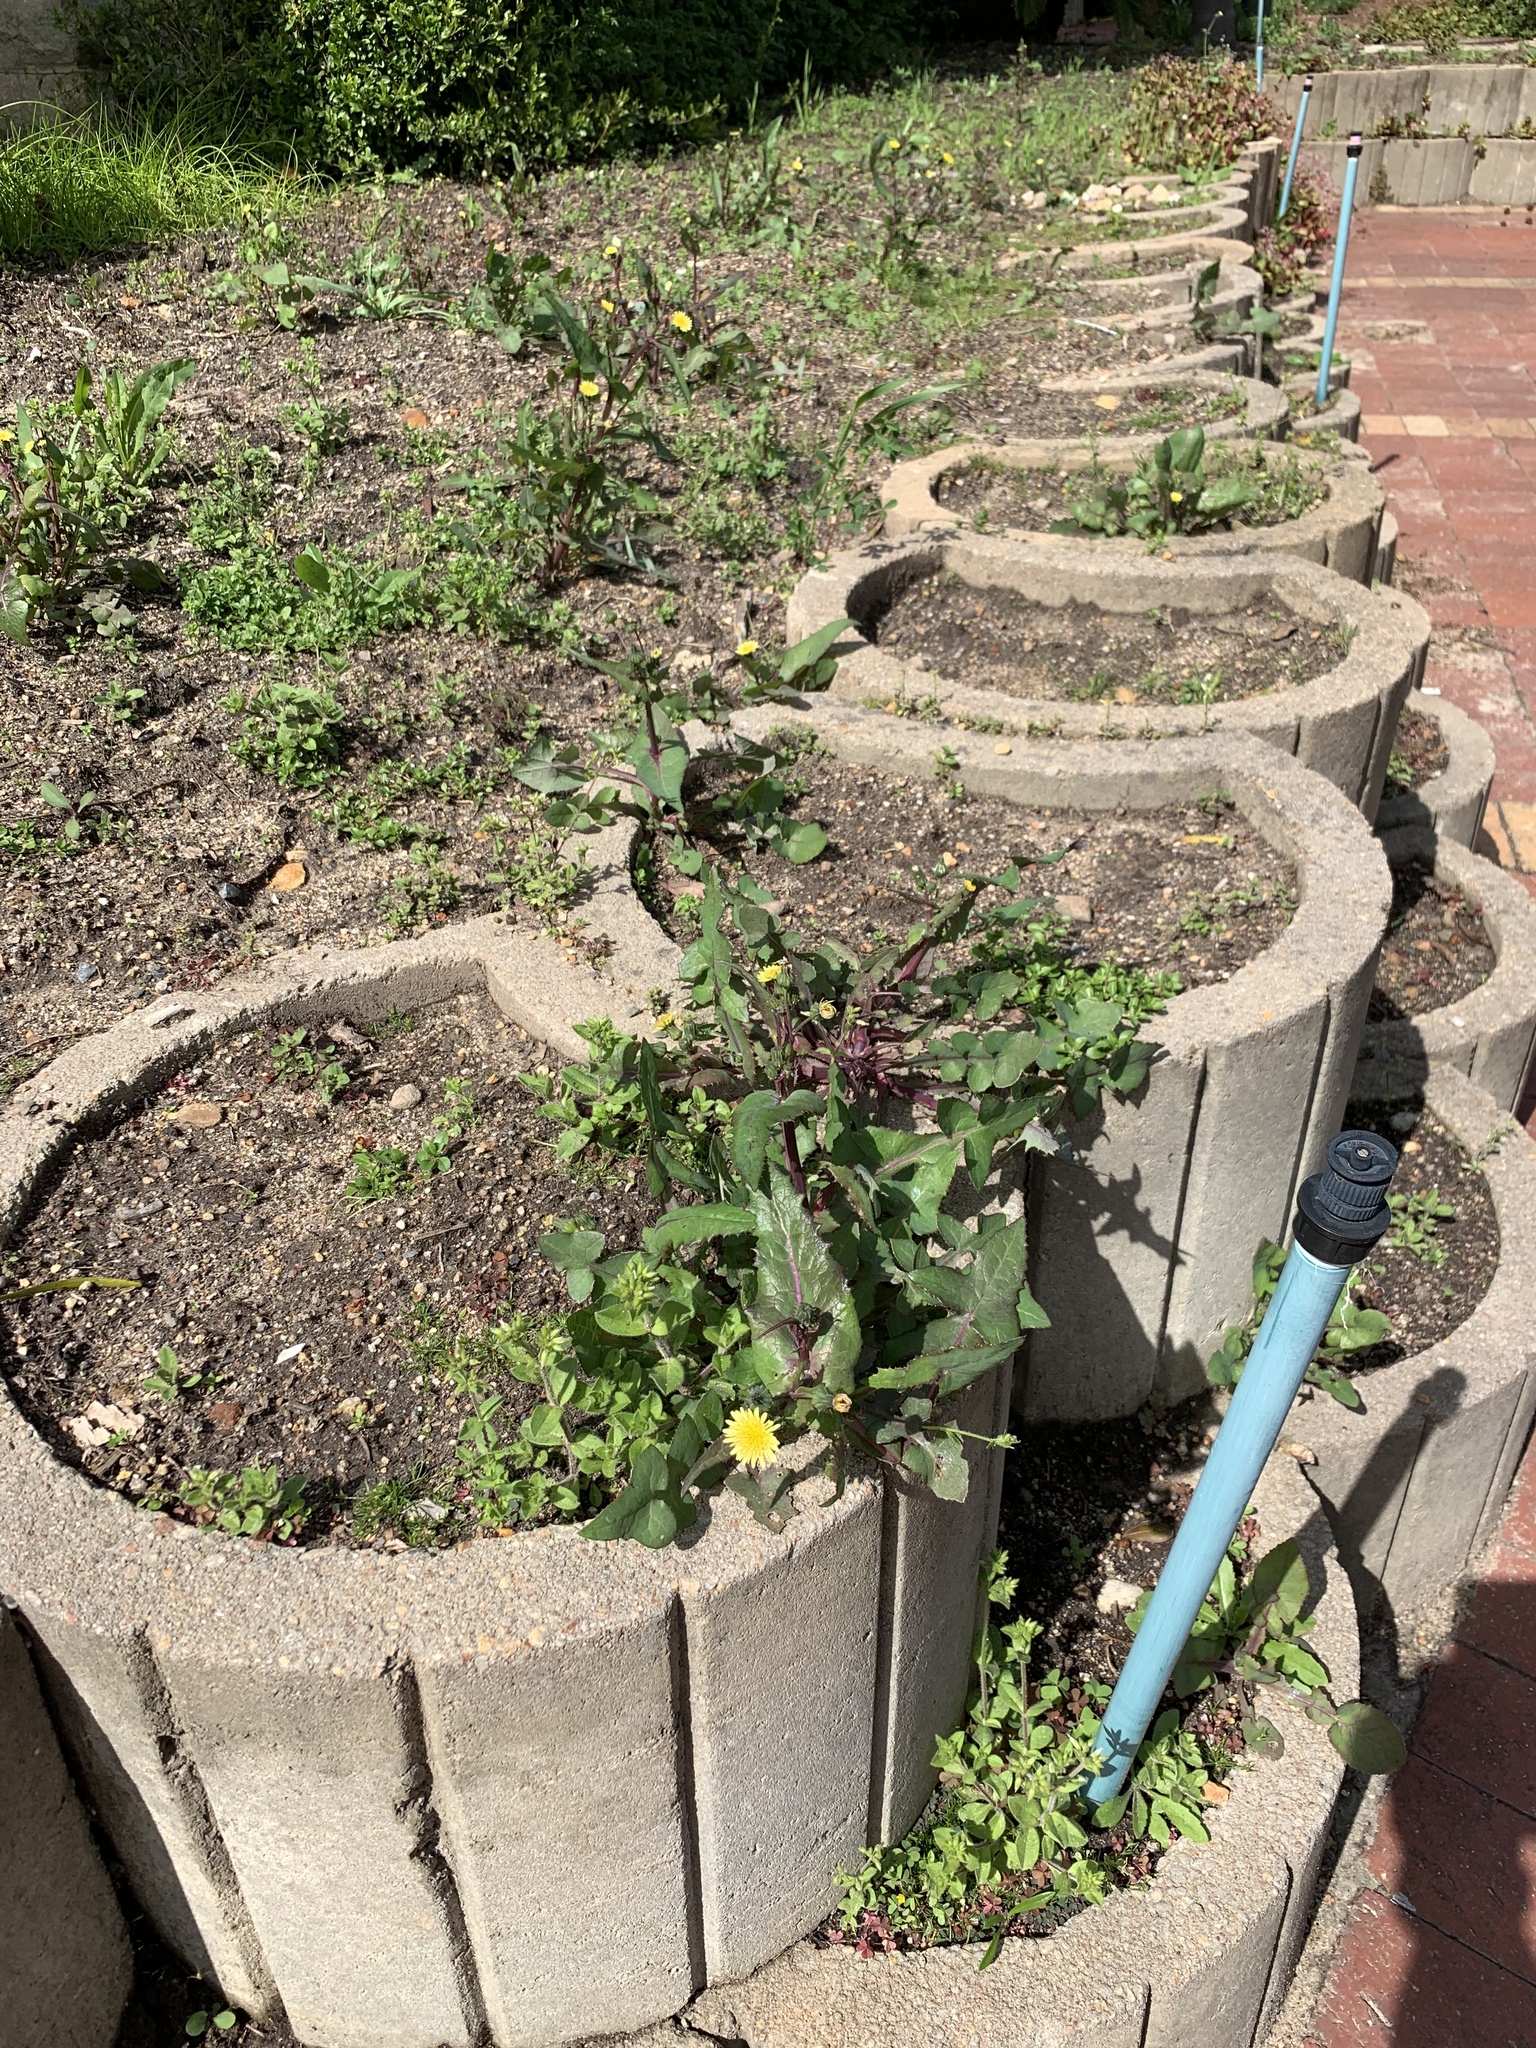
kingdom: Plantae
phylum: Tracheophyta
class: Magnoliopsida
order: Asterales
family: Asteraceae
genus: Sonchus
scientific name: Sonchus oleraceus
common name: Common sowthistle
